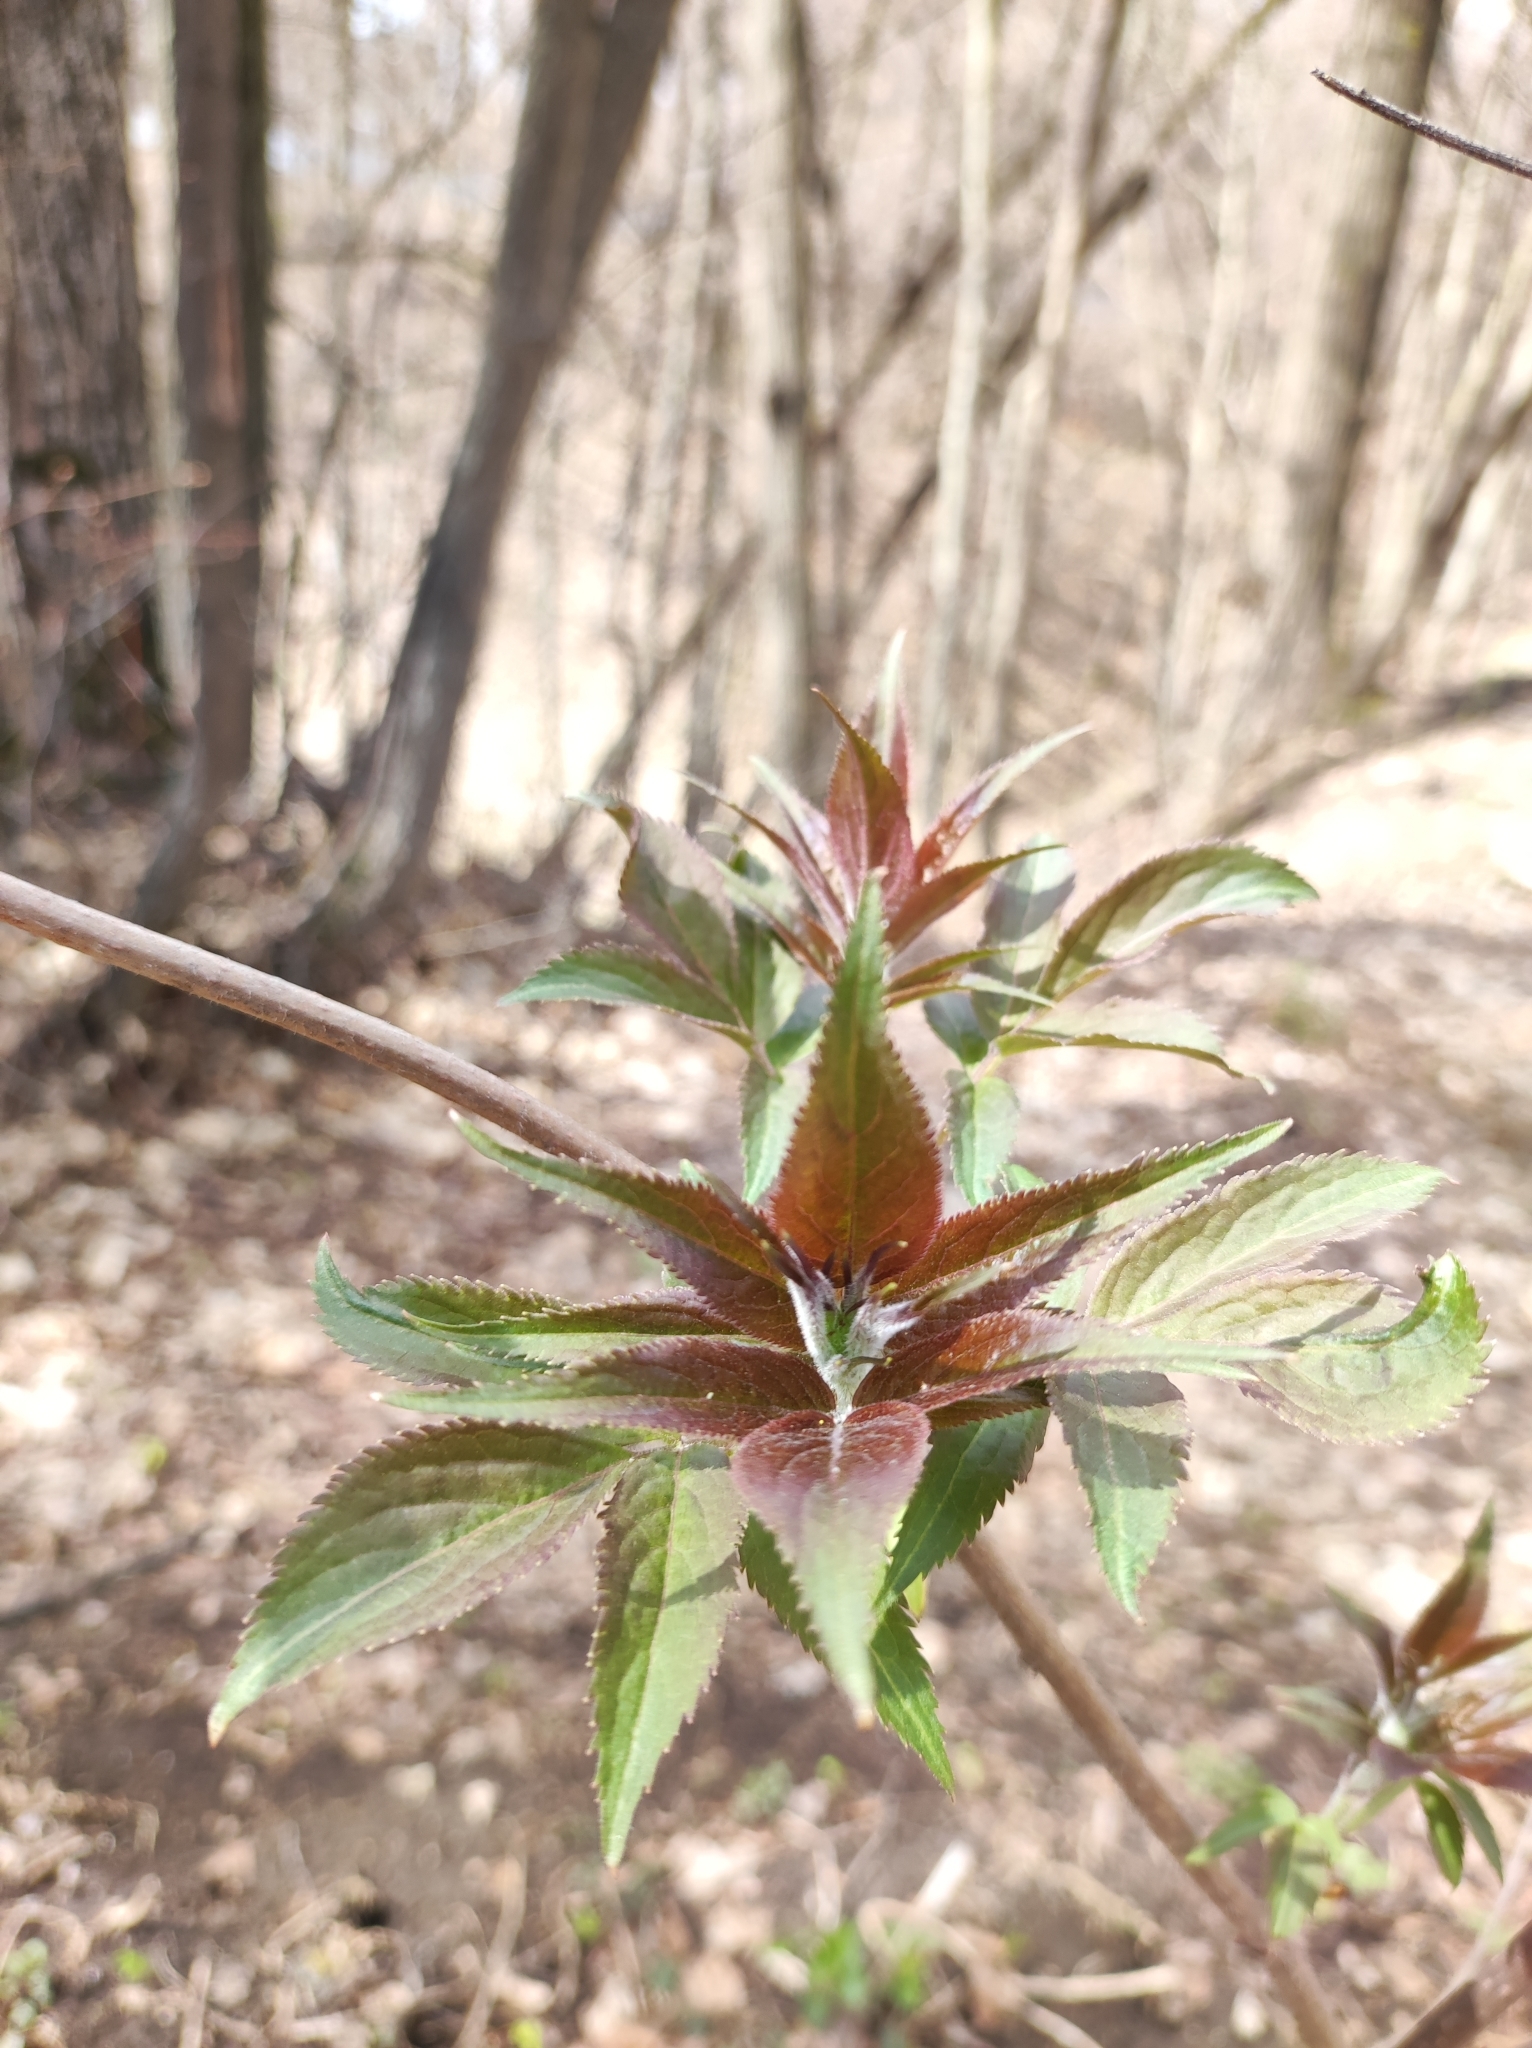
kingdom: Plantae
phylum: Tracheophyta
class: Magnoliopsida
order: Dipsacales
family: Viburnaceae
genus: Sambucus
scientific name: Sambucus racemosa
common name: Red-berried elder
